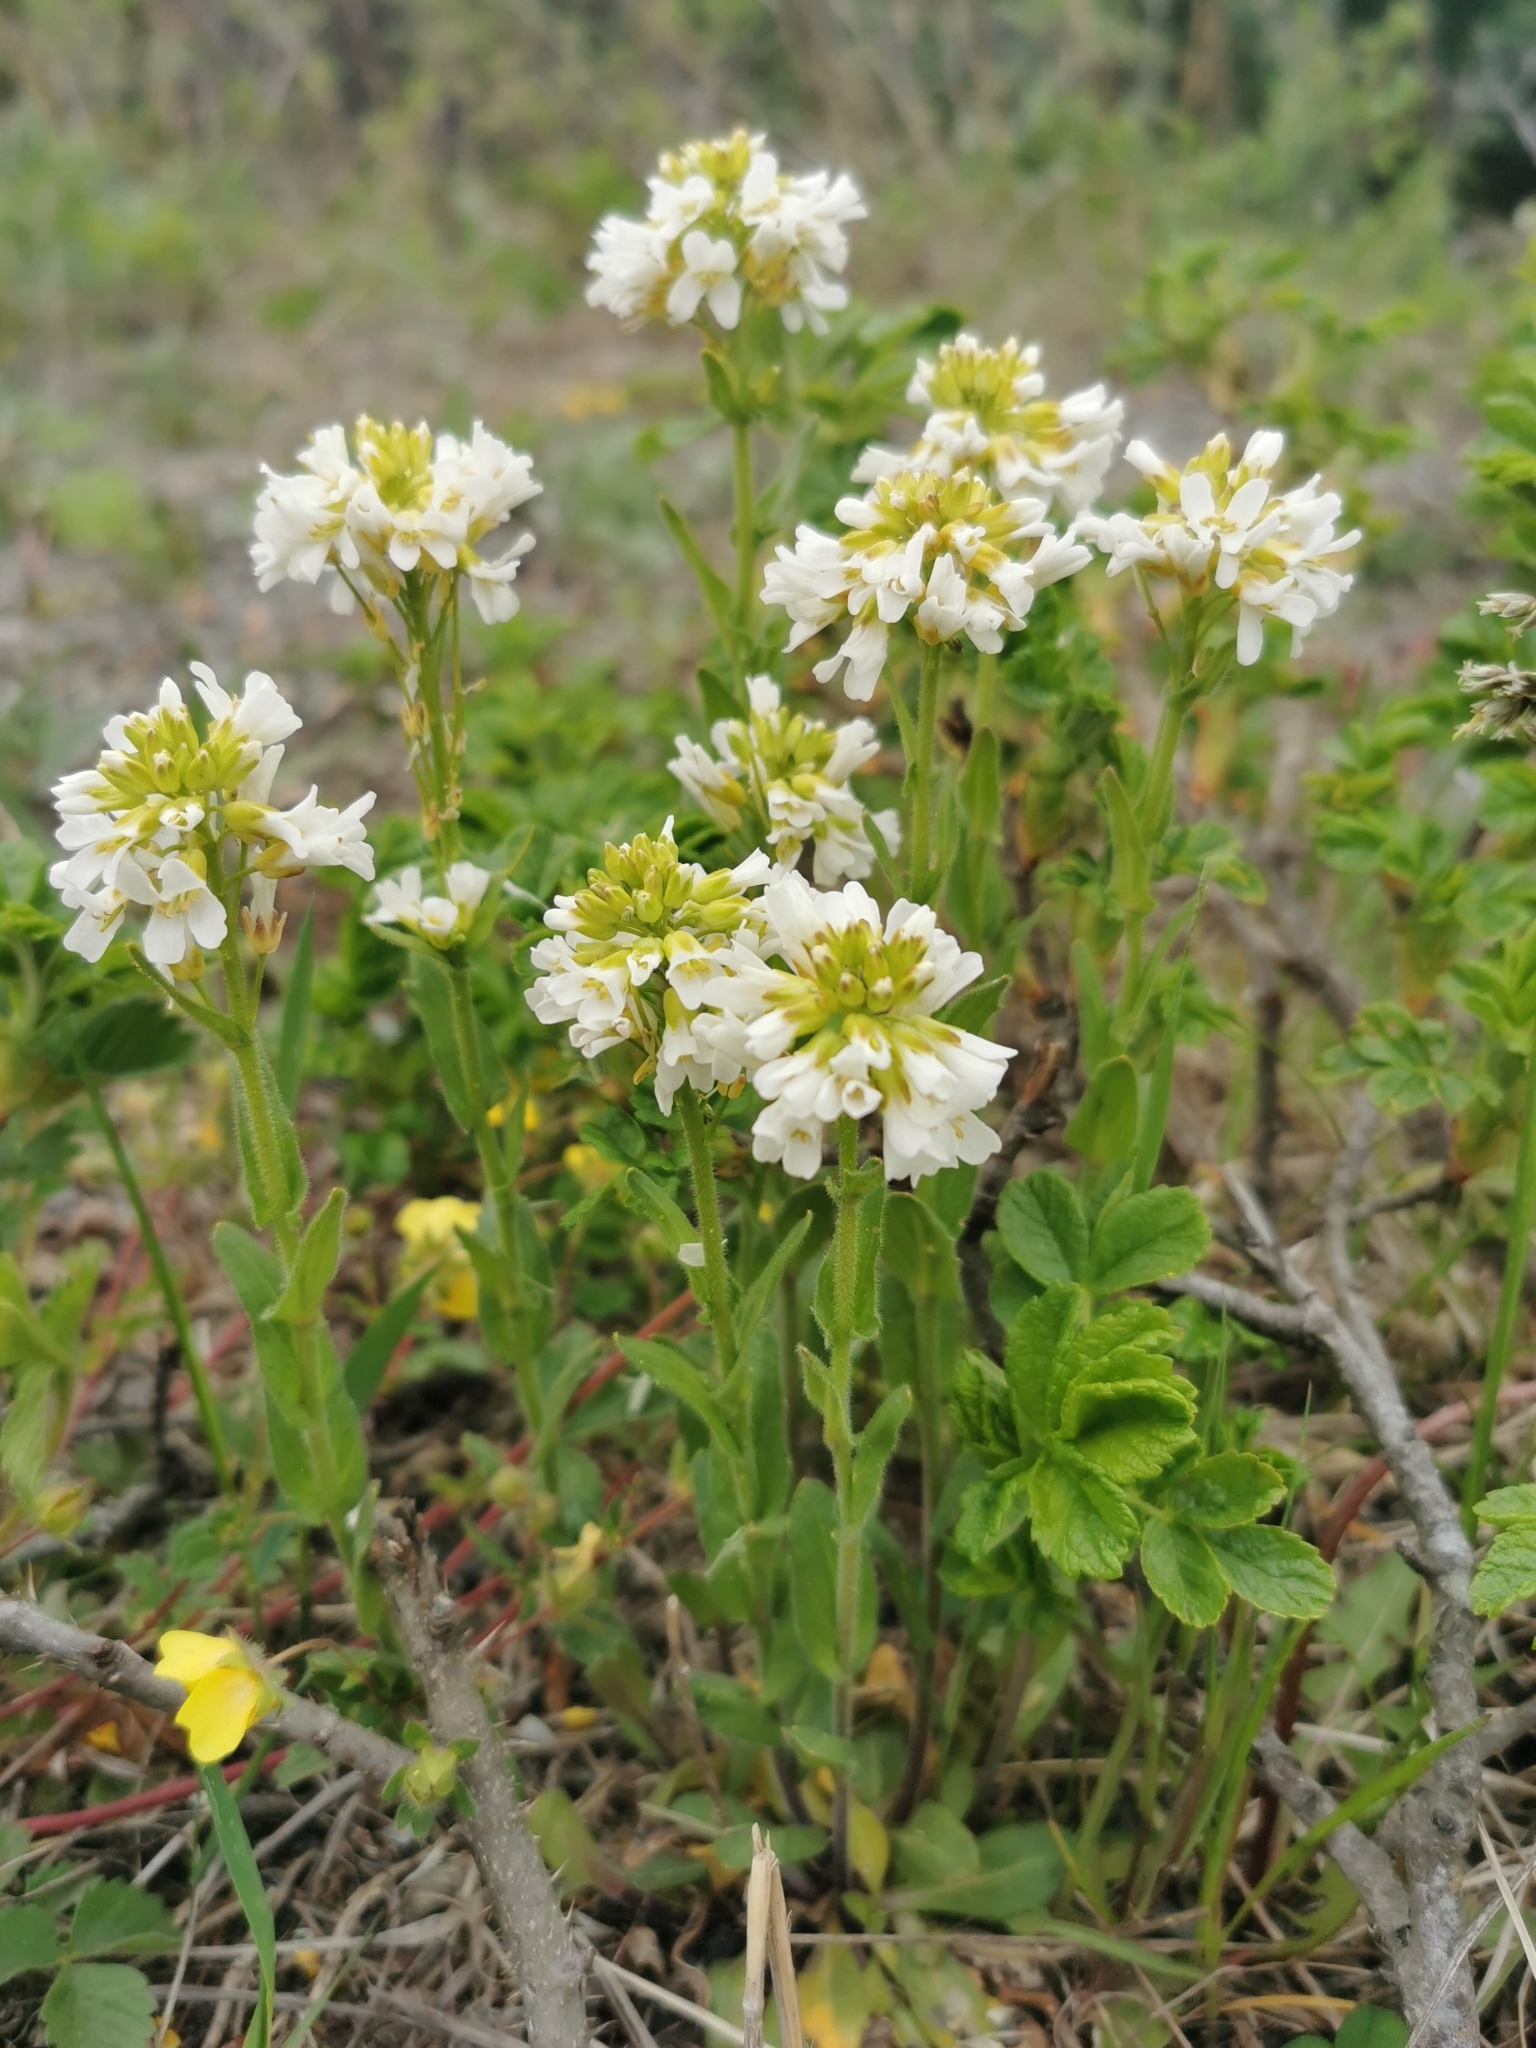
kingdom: Plantae
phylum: Tracheophyta
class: Magnoliopsida
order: Brassicales
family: Brassicaceae
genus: Arabis
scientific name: Arabis
